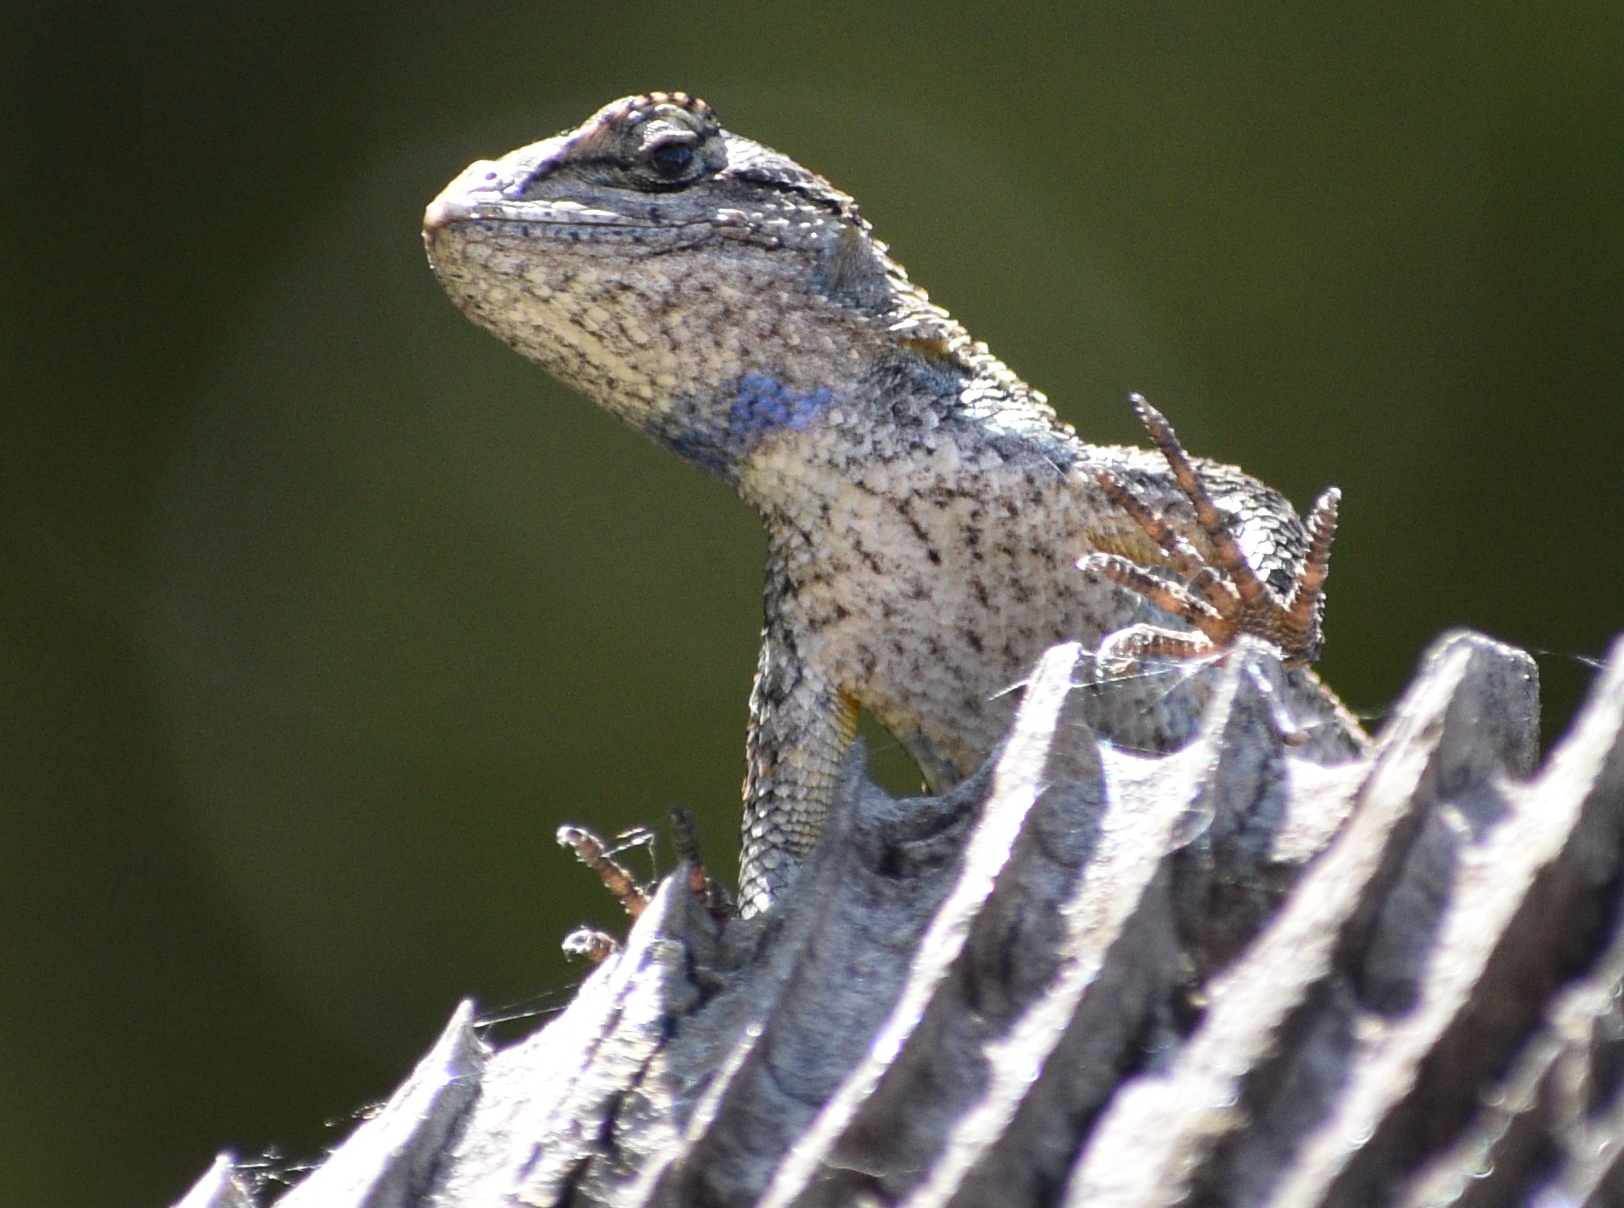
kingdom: Animalia
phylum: Chordata
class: Squamata
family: Phrynosomatidae
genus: Sceloporus
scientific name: Sceloporus occidentalis
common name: Western fence lizard
